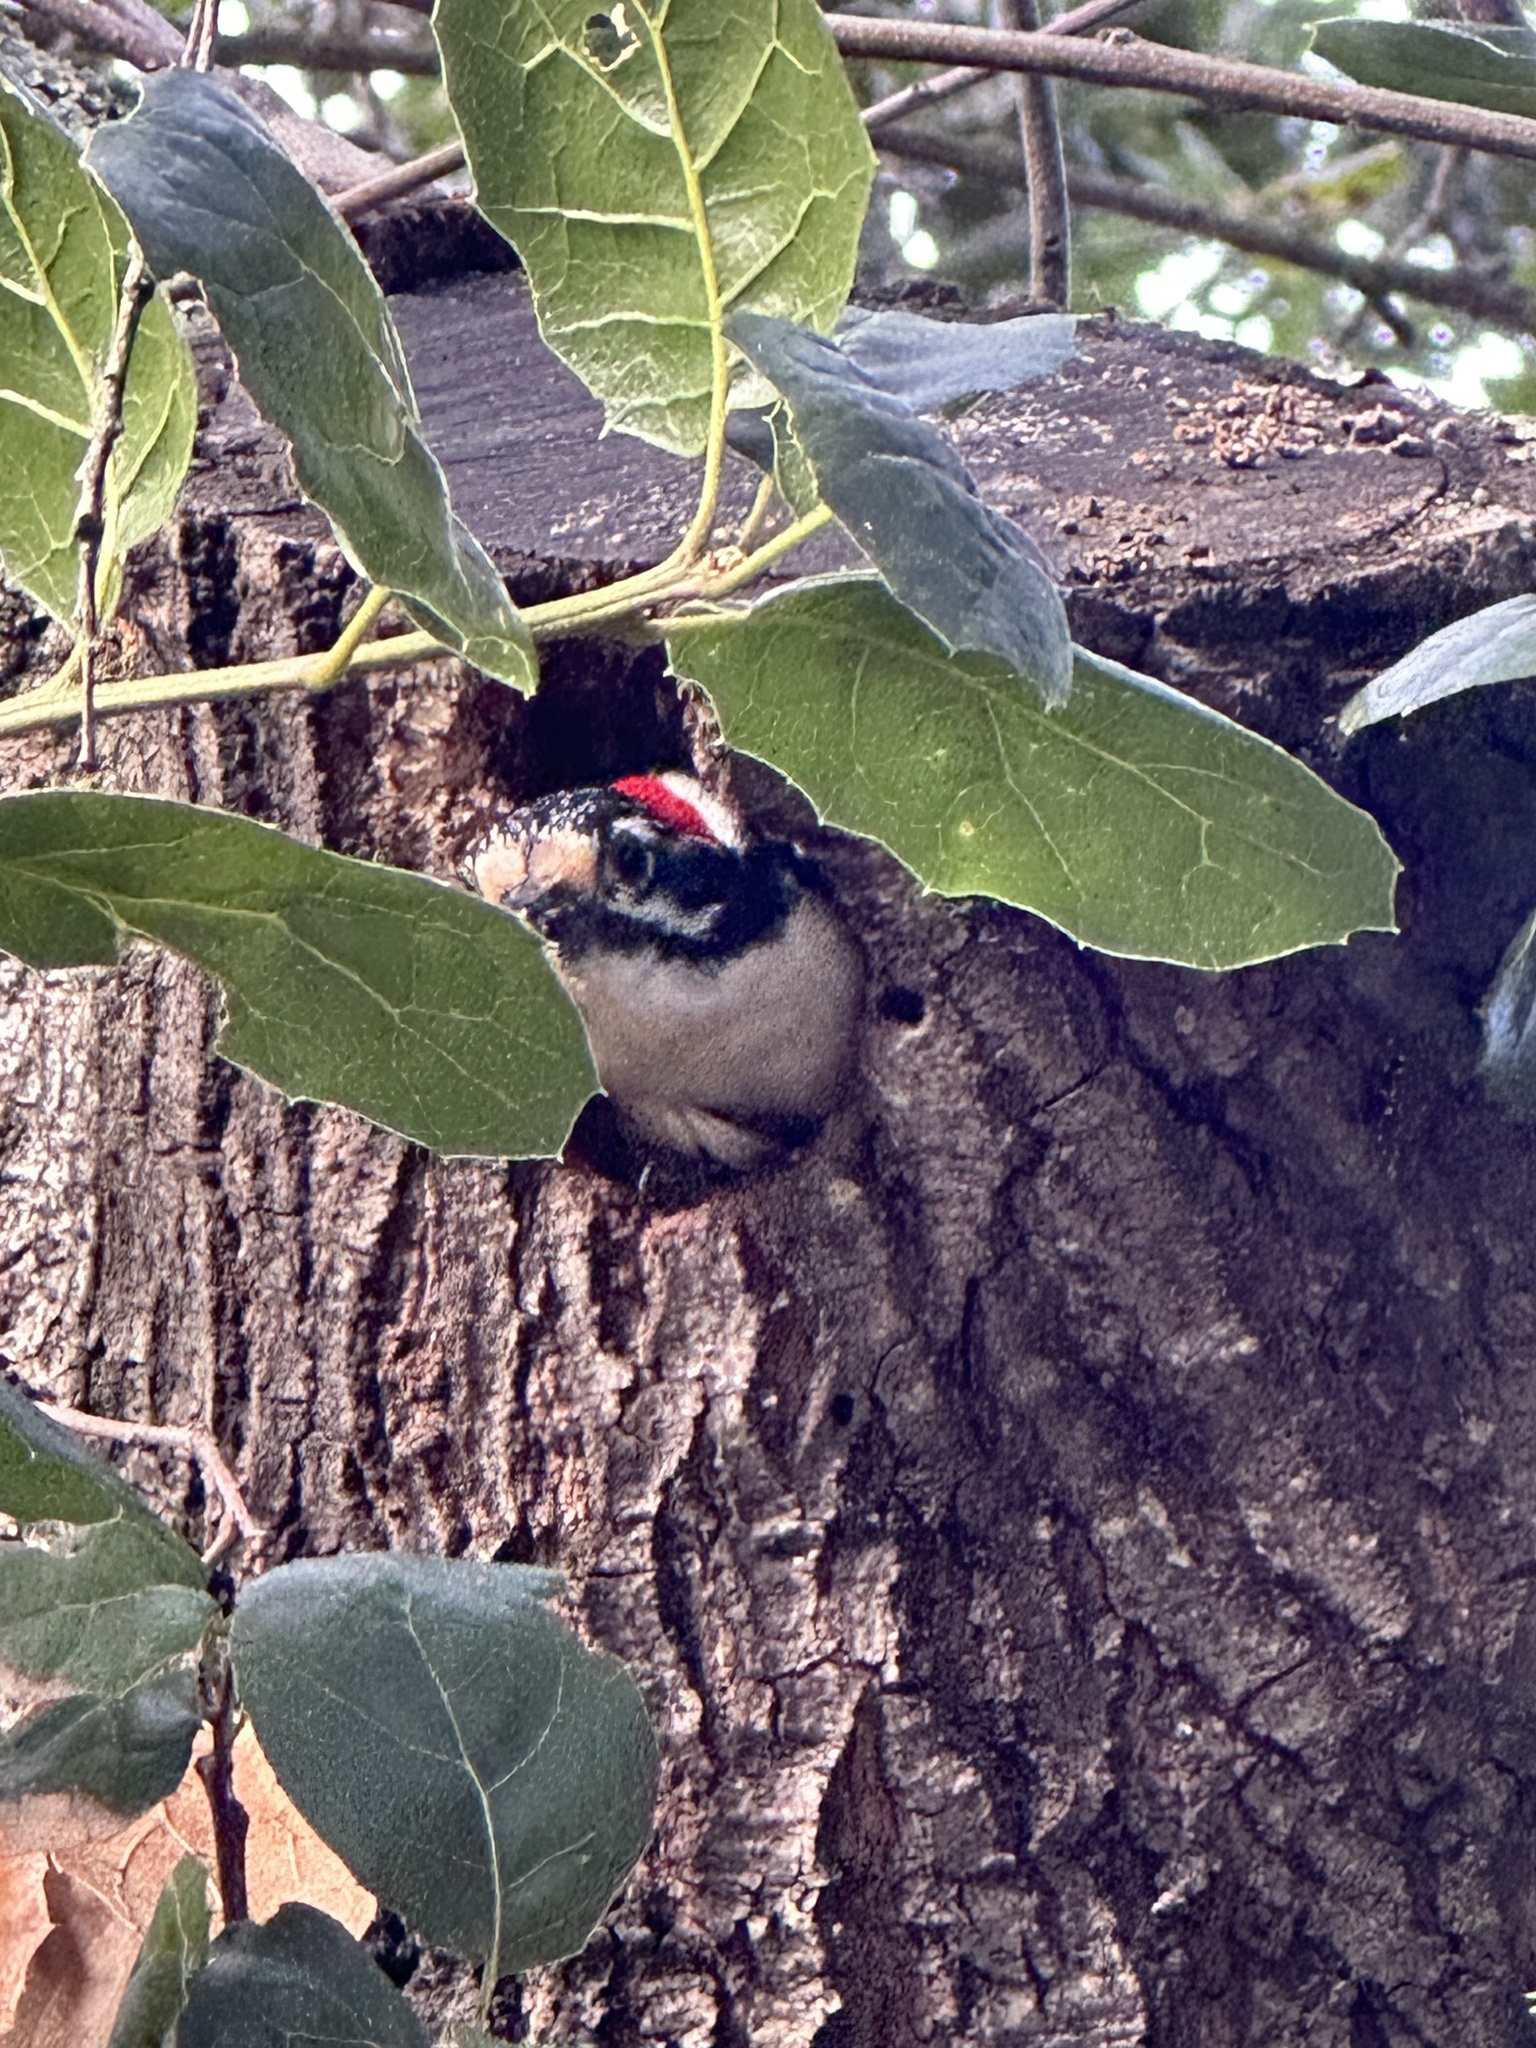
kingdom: Animalia
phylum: Chordata
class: Aves
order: Piciformes
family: Picidae
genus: Dryobates
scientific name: Dryobates nuttallii
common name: Nuttall's woodpecker
